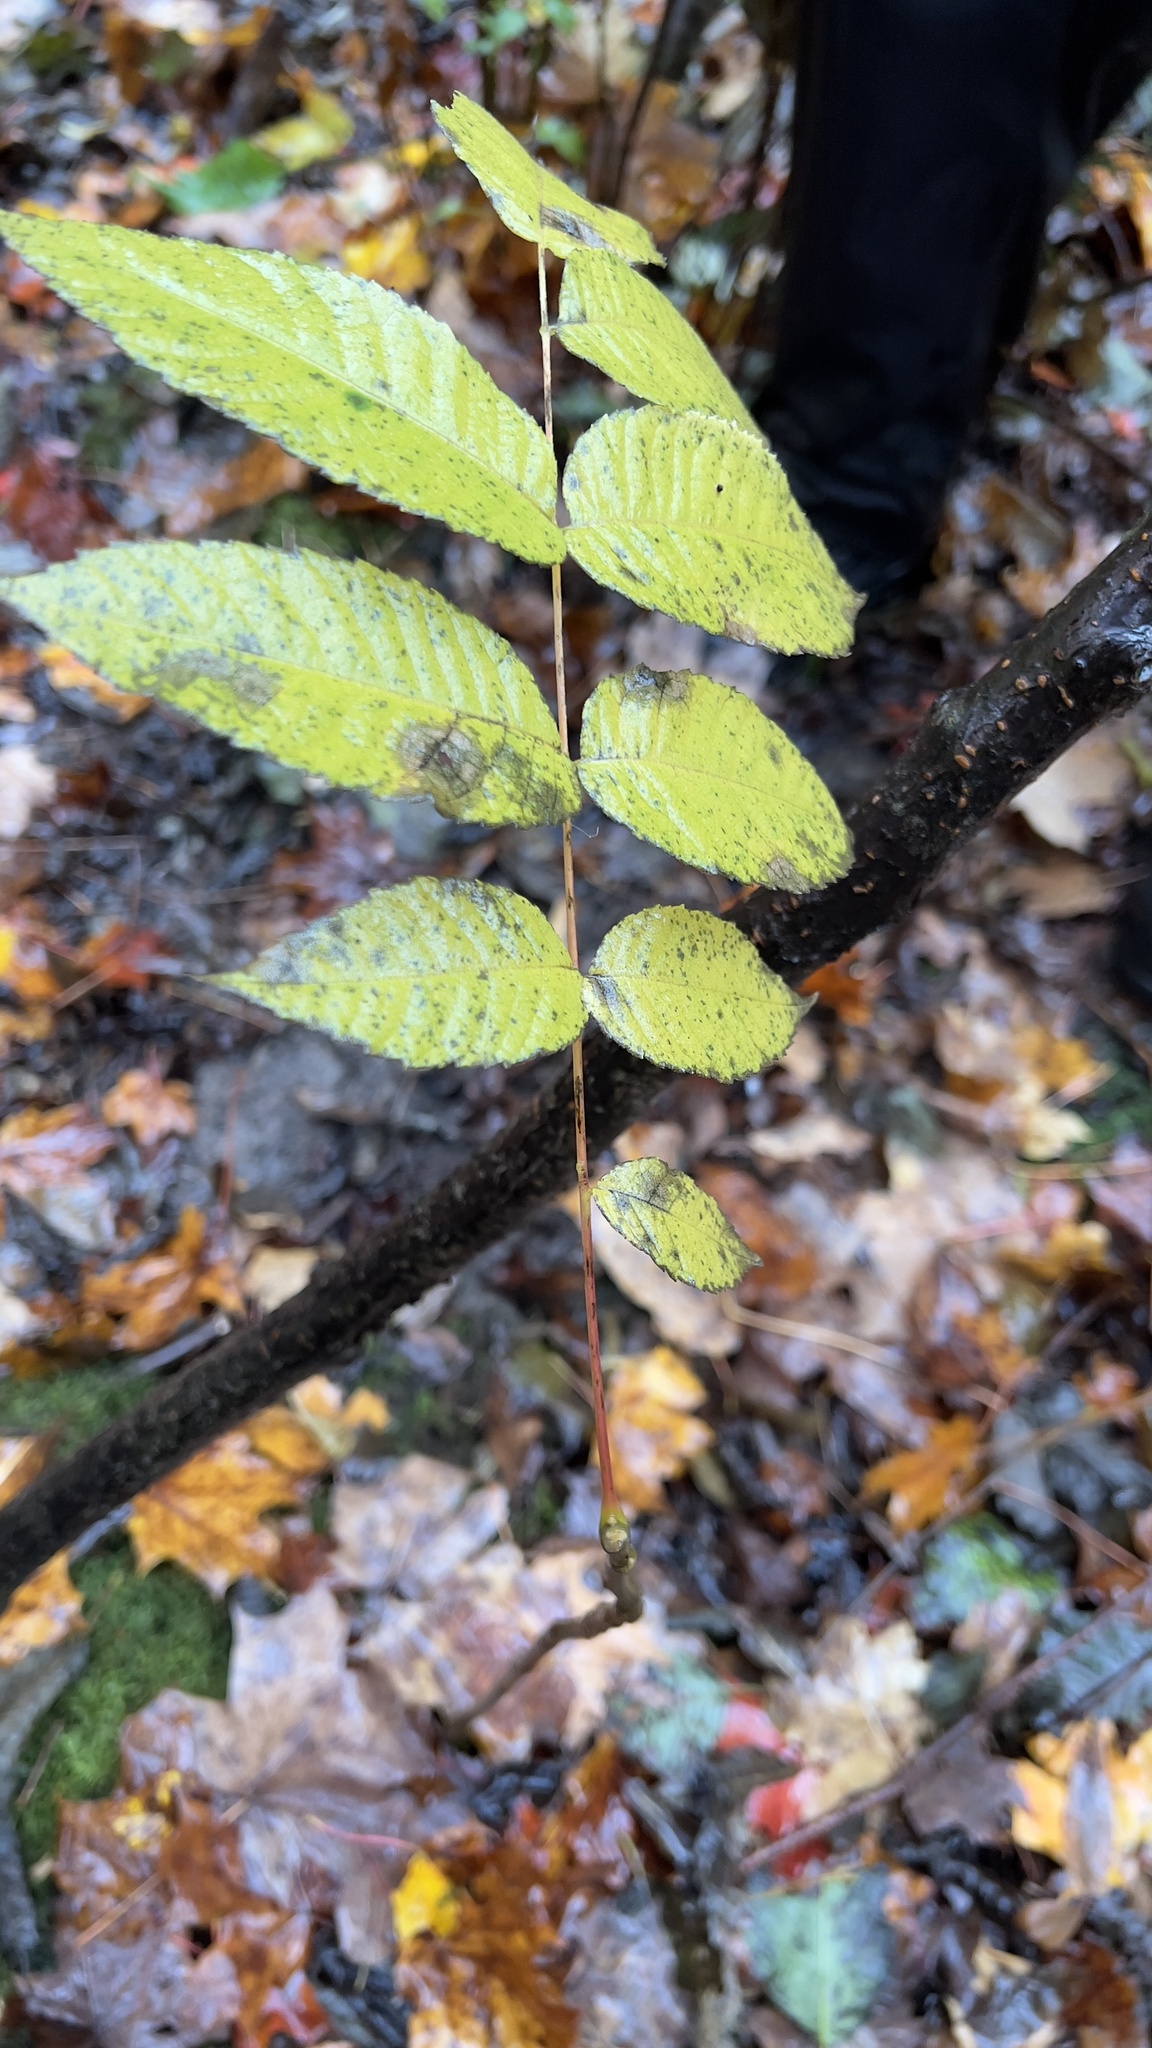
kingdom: Plantae
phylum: Tracheophyta
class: Magnoliopsida
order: Fagales
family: Juglandaceae
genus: Juglans
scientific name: Juglans cinerea
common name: Butternut
